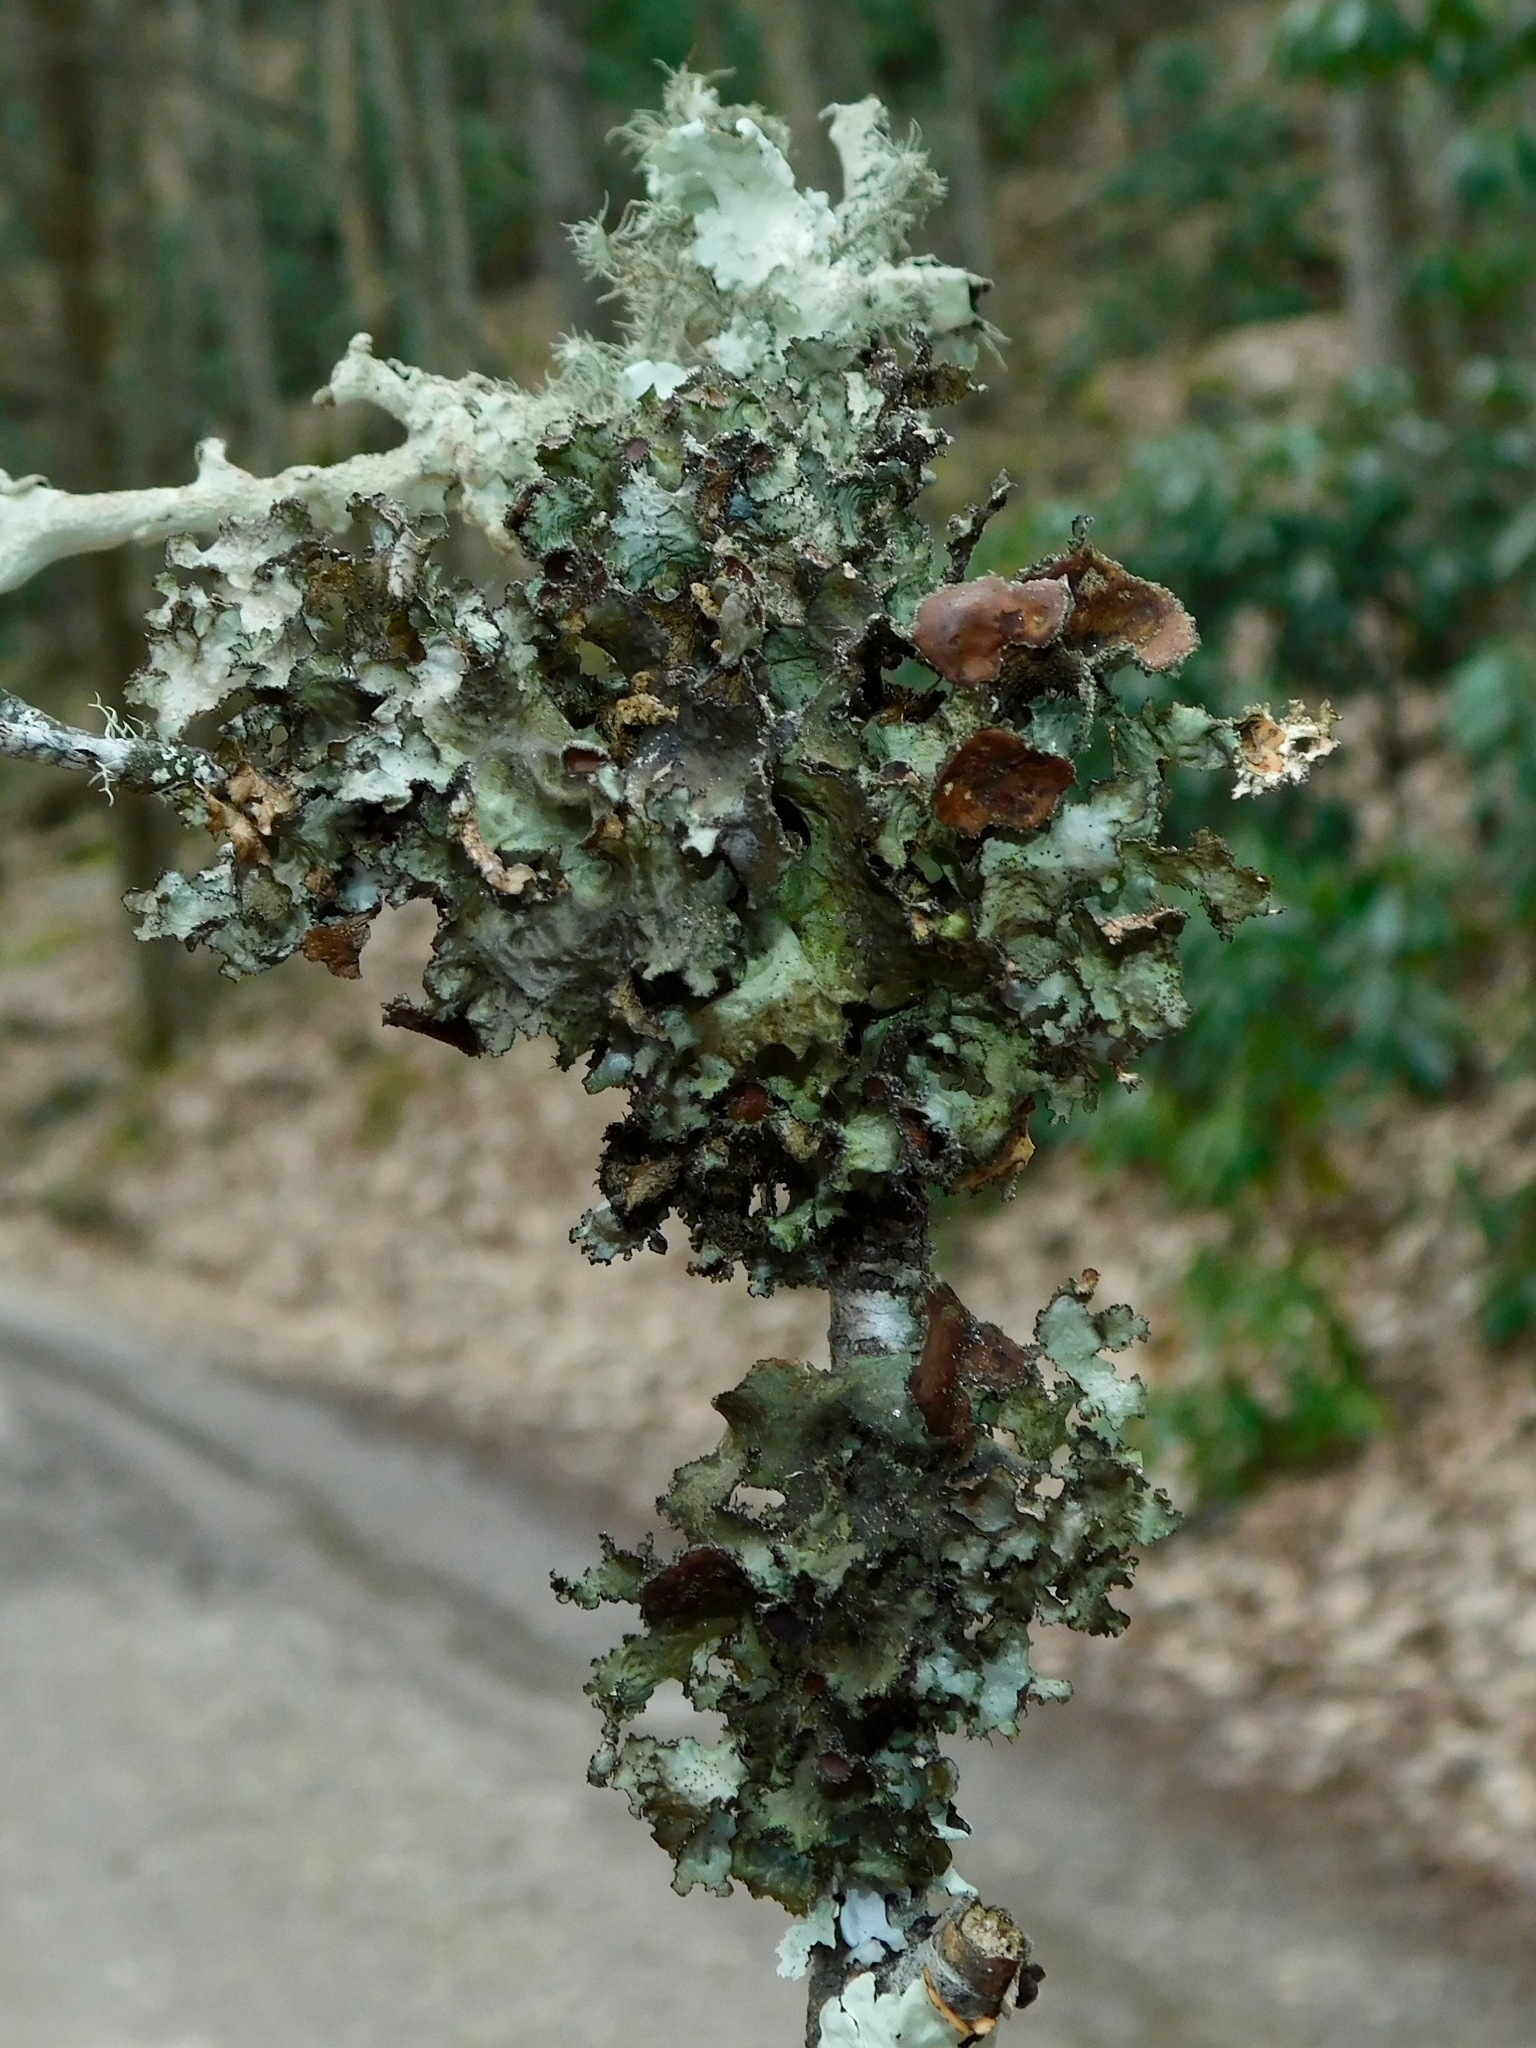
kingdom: Fungi
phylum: Ascomycota
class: Lecanoromycetes
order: Lecanorales
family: Parmeliaceae
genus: Nephromopsis
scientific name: Nephromopsis americana
